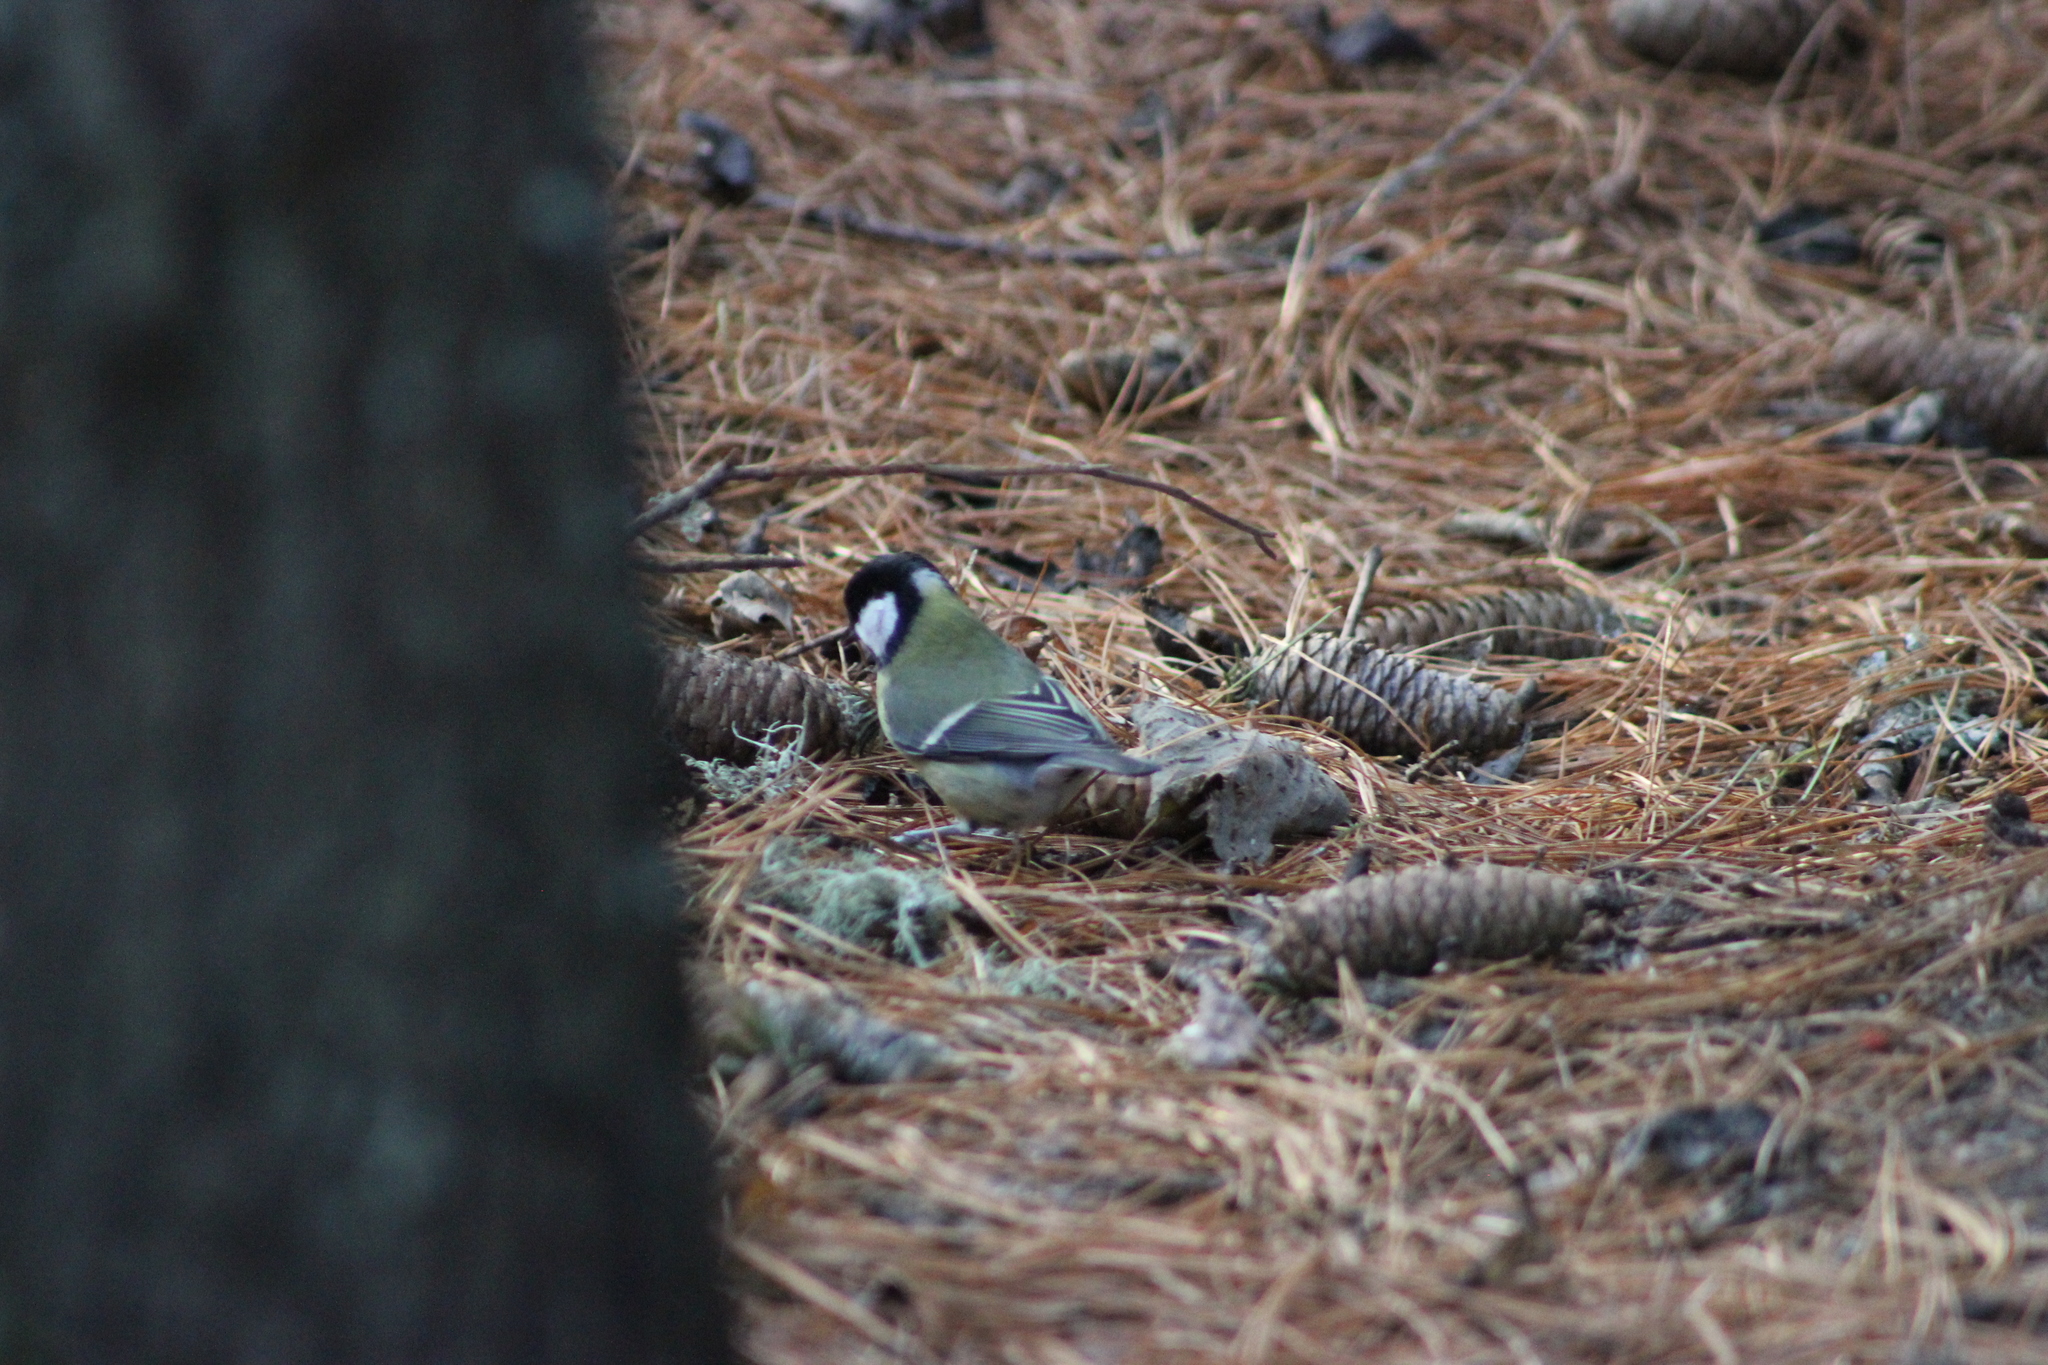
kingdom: Animalia
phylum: Chordata
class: Aves
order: Passeriformes
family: Paridae
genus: Parus
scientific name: Parus major
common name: Great tit
